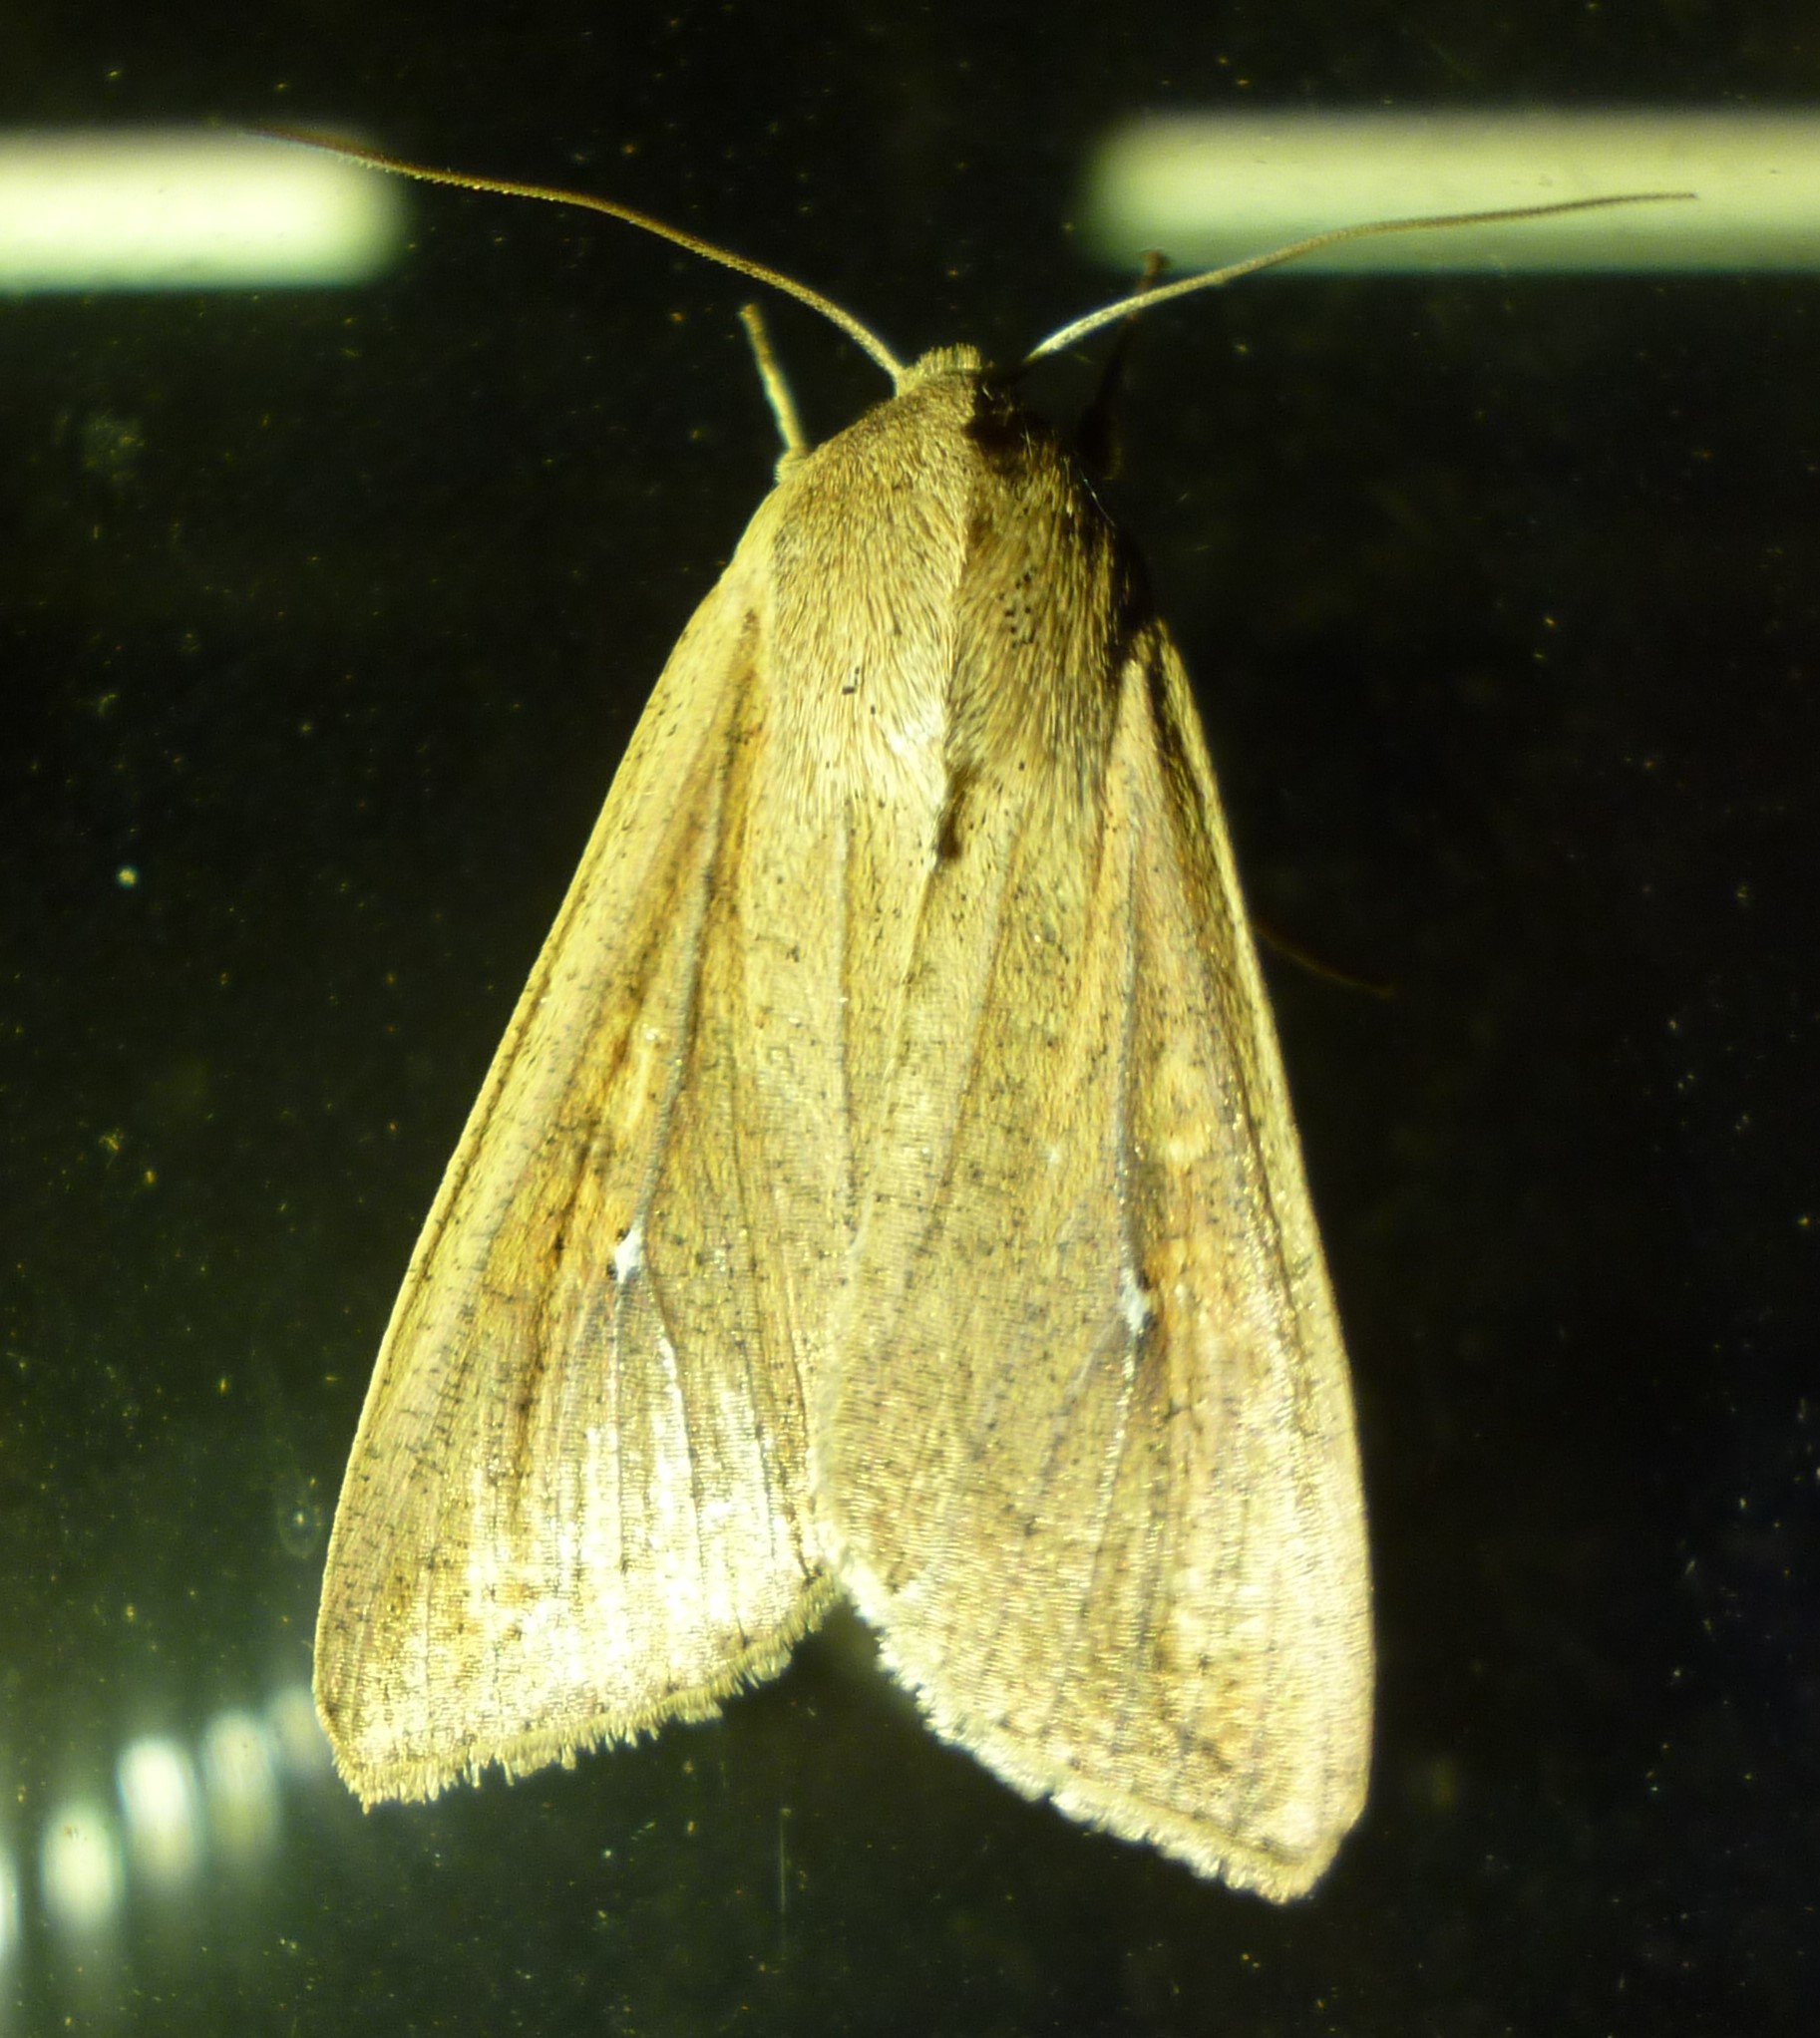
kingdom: Animalia
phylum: Arthropoda
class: Insecta
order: Lepidoptera
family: Noctuidae
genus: Mythimna
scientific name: Mythimna unipuncta
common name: White-speck
